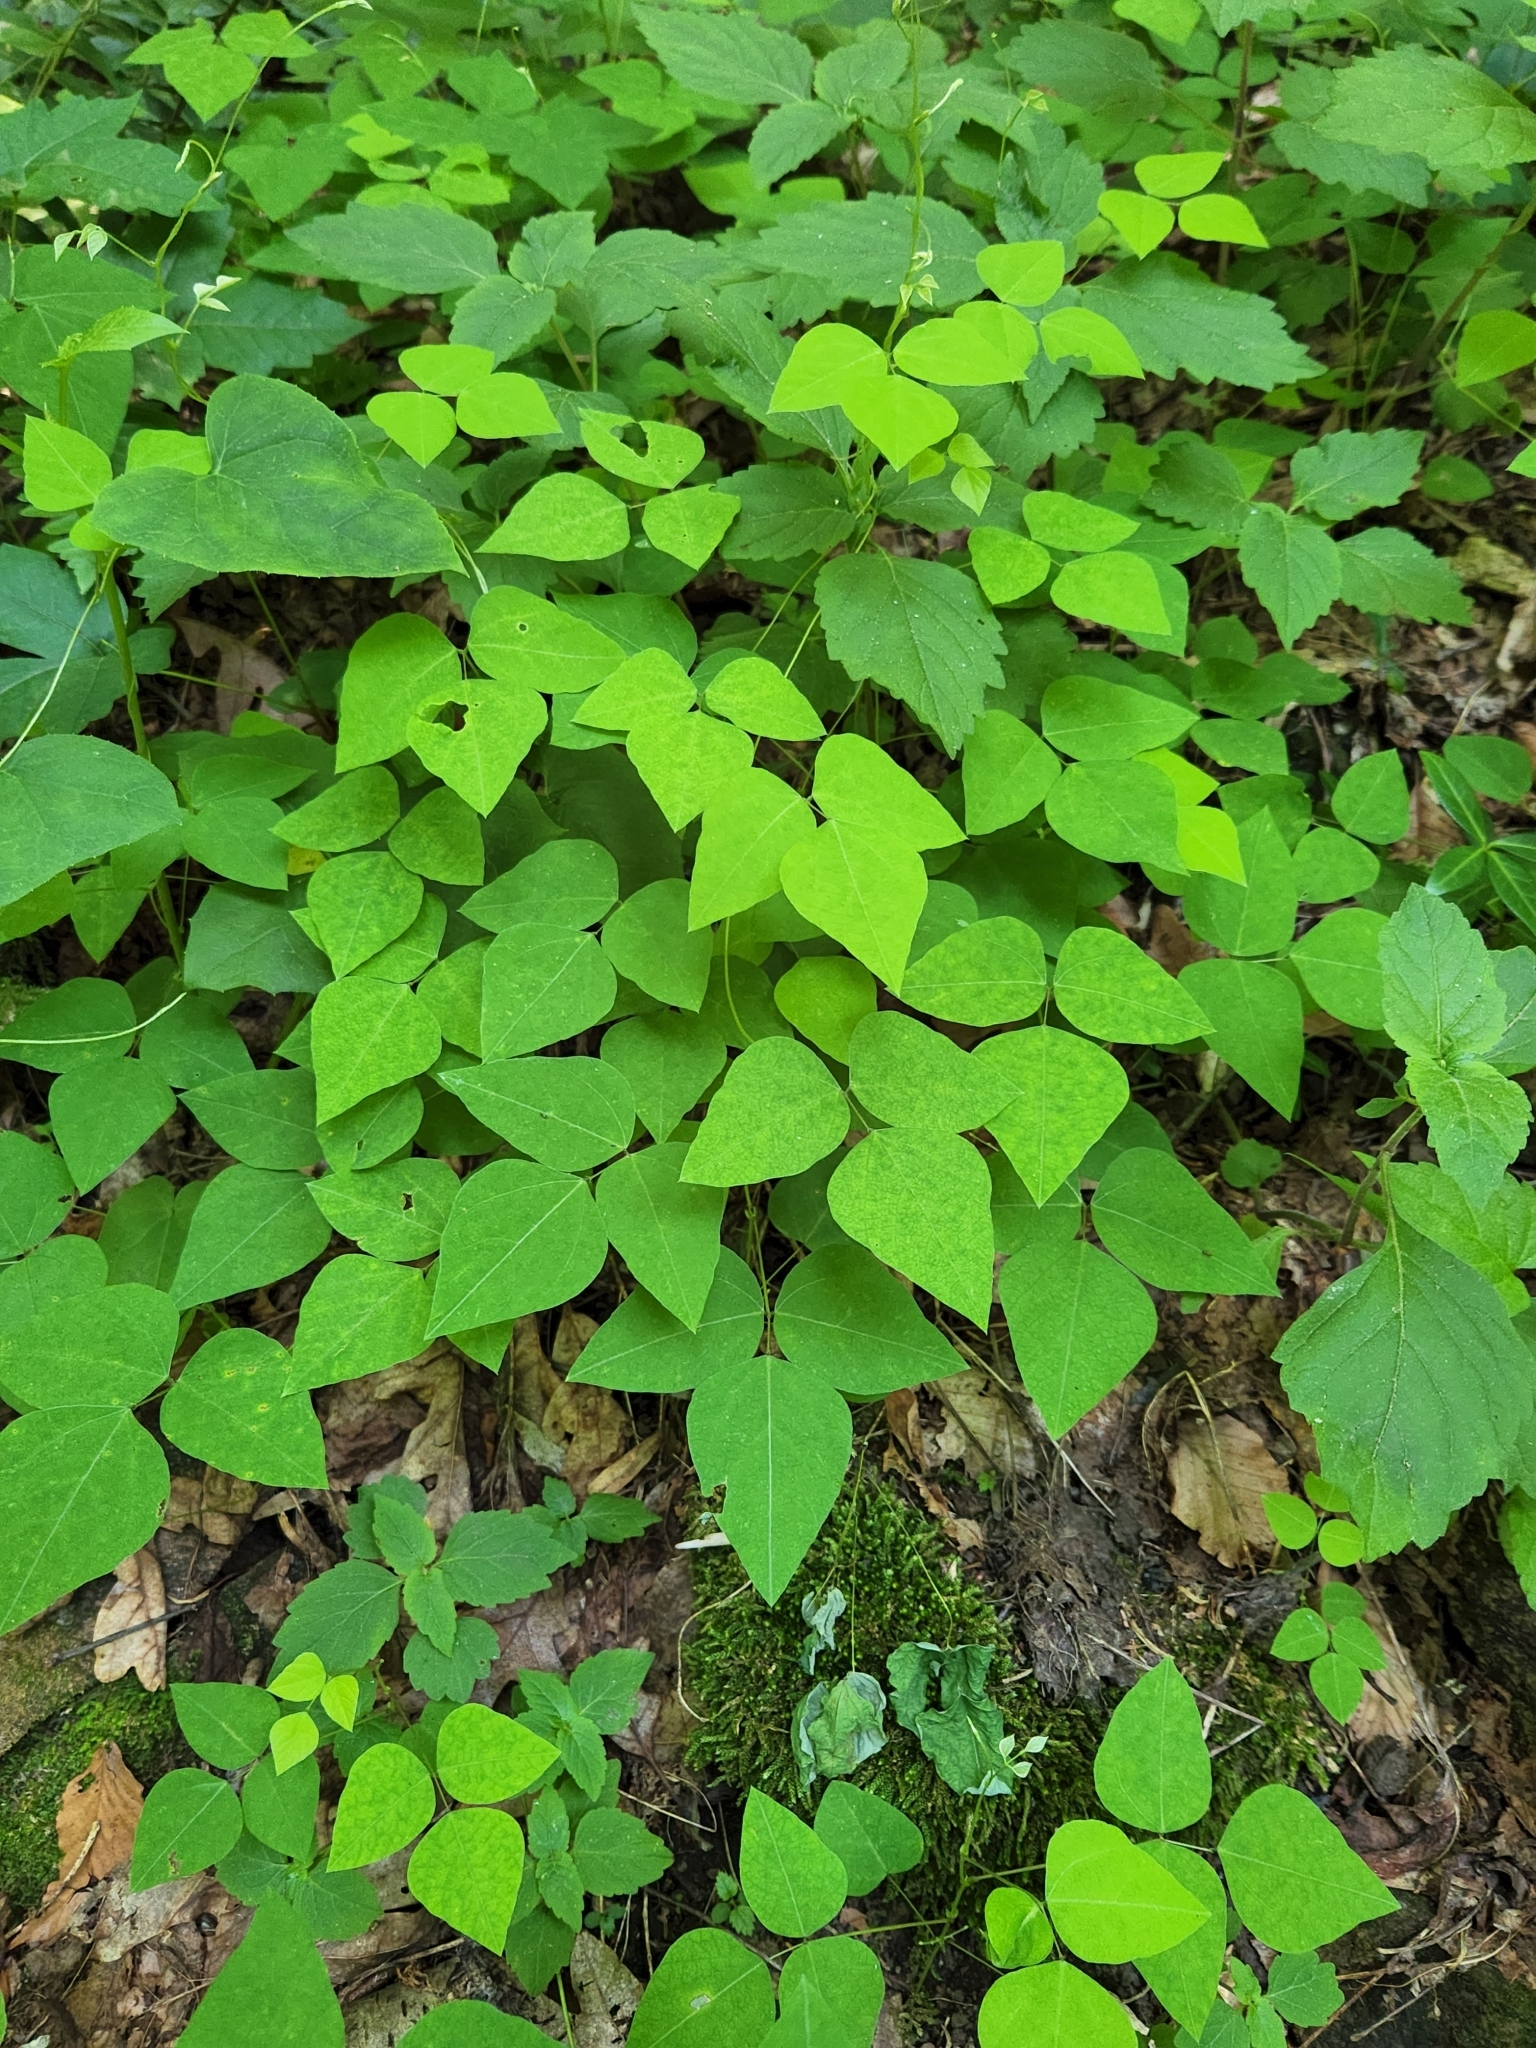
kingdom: Plantae
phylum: Tracheophyta
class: Magnoliopsida
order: Fabales
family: Fabaceae
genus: Amphicarpaea
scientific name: Amphicarpaea bracteata
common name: American hog peanut
